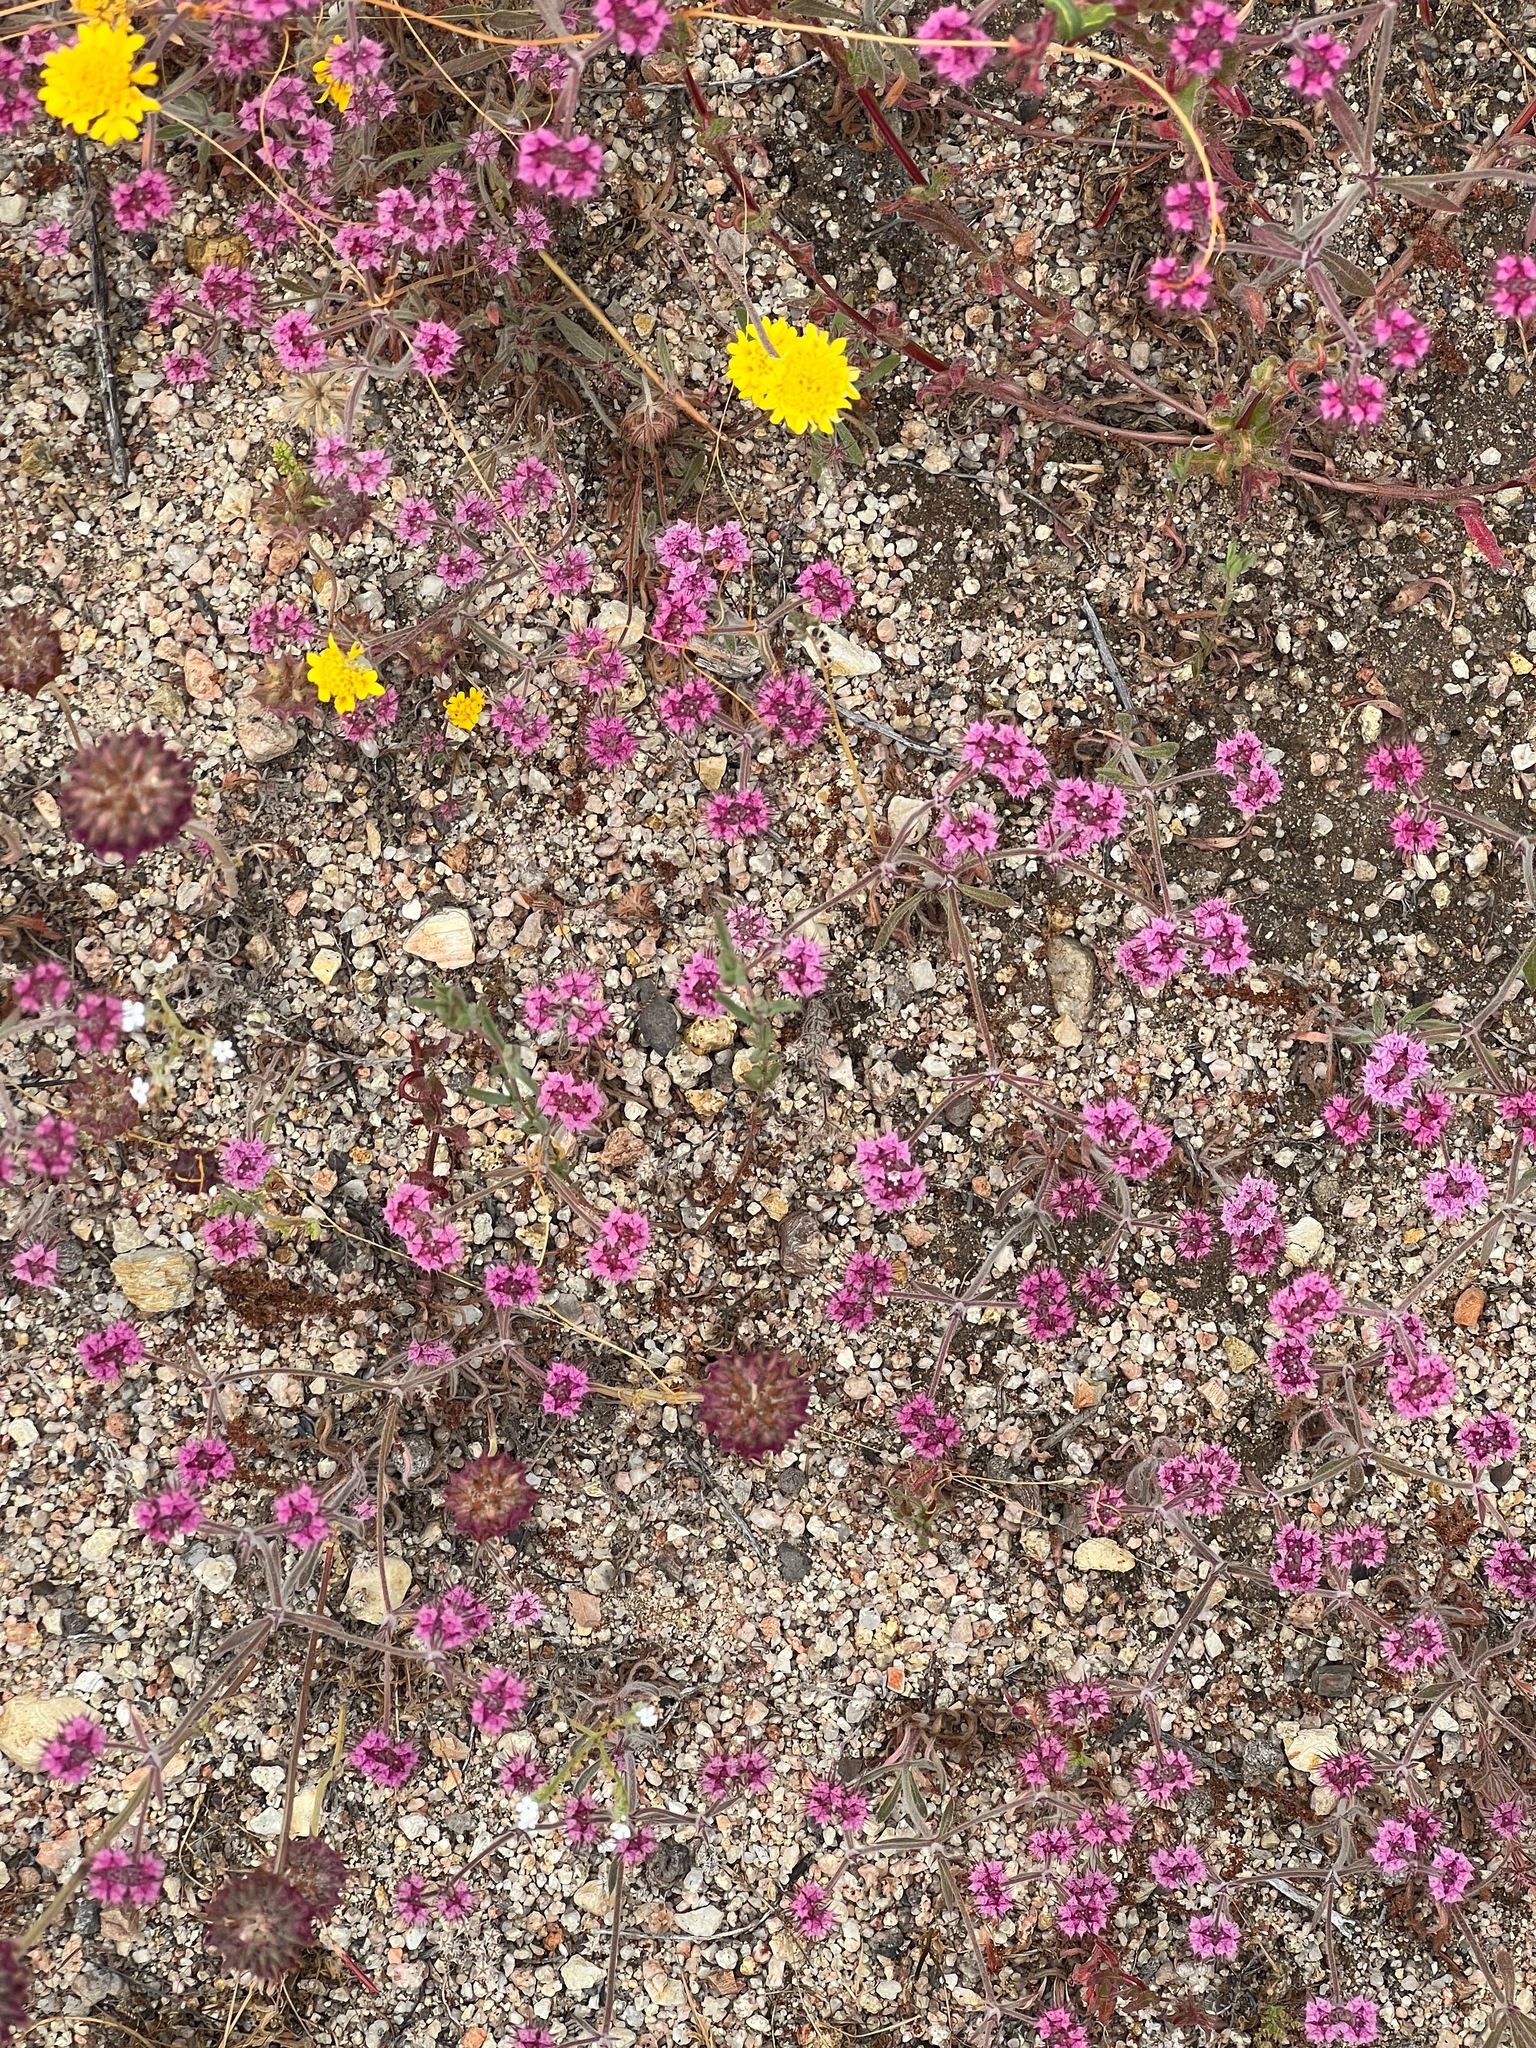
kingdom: Plantae
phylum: Tracheophyta
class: Magnoliopsida
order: Caryophyllales
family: Polygonaceae
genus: Chorizanthe
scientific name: Chorizanthe douglasii
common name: Douglas's spineflower
